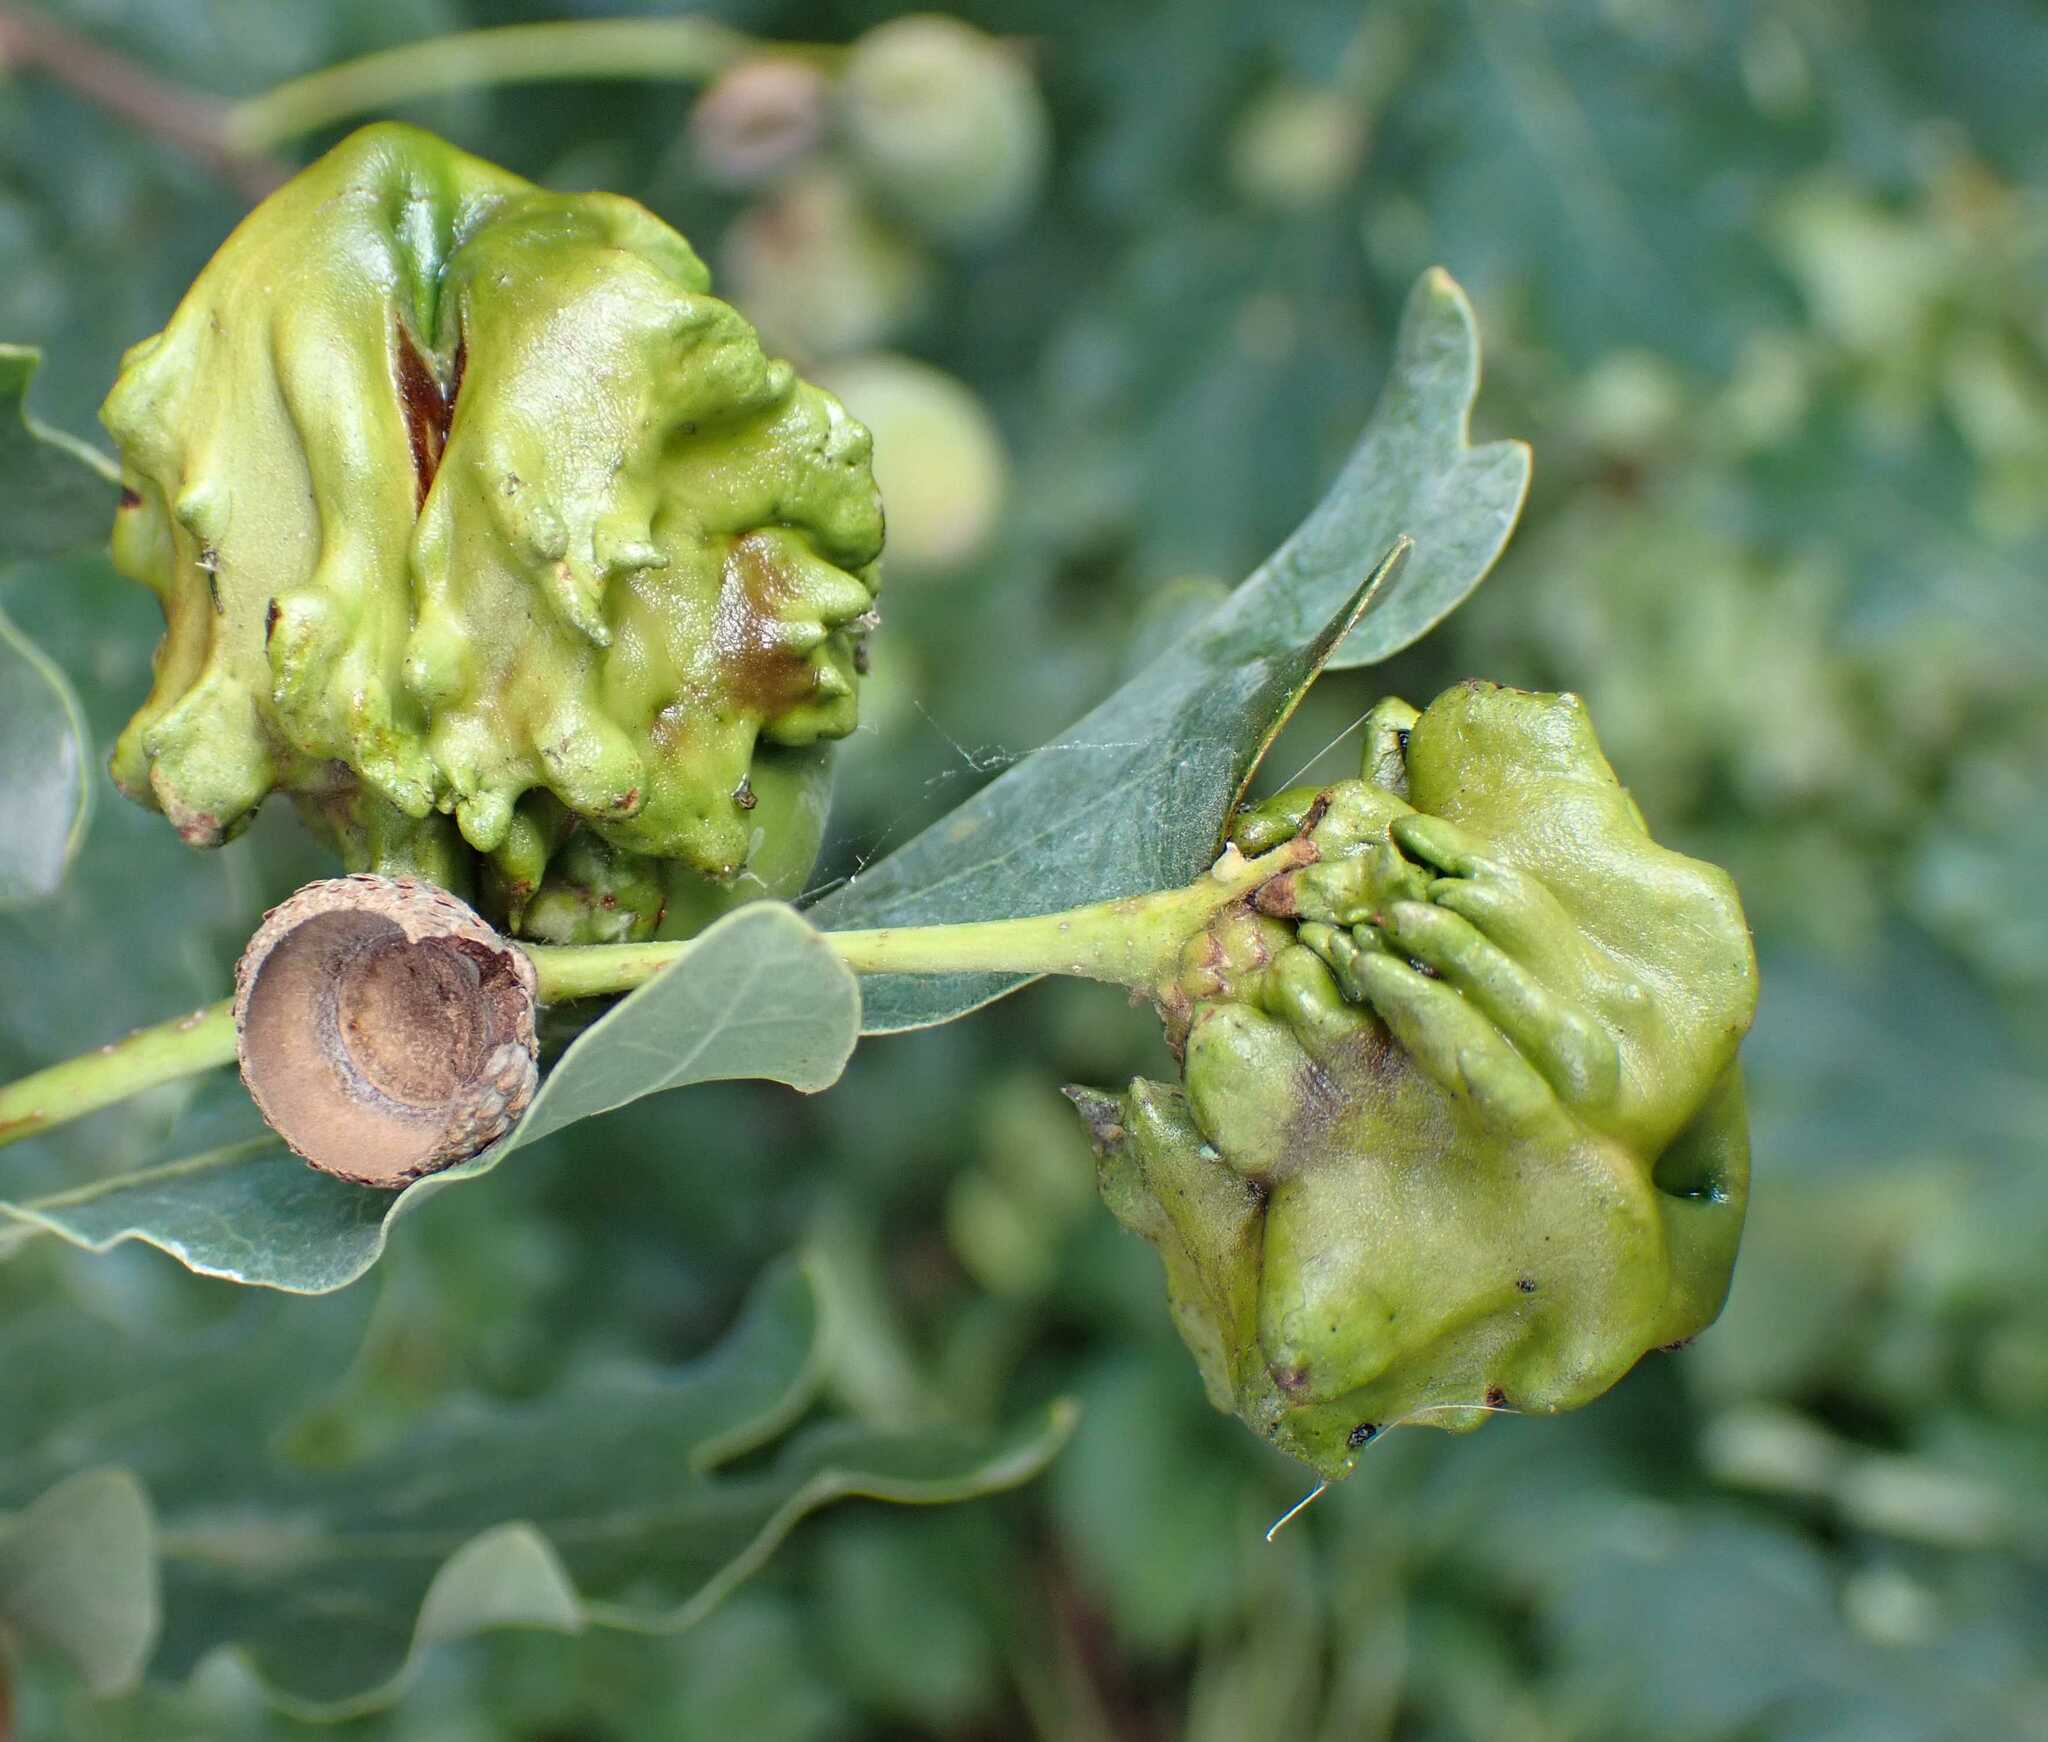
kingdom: Animalia
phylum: Arthropoda
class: Insecta
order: Hymenoptera
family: Cynipidae
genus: Andricus
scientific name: Andricus quercuscalicis
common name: Knopper gall
